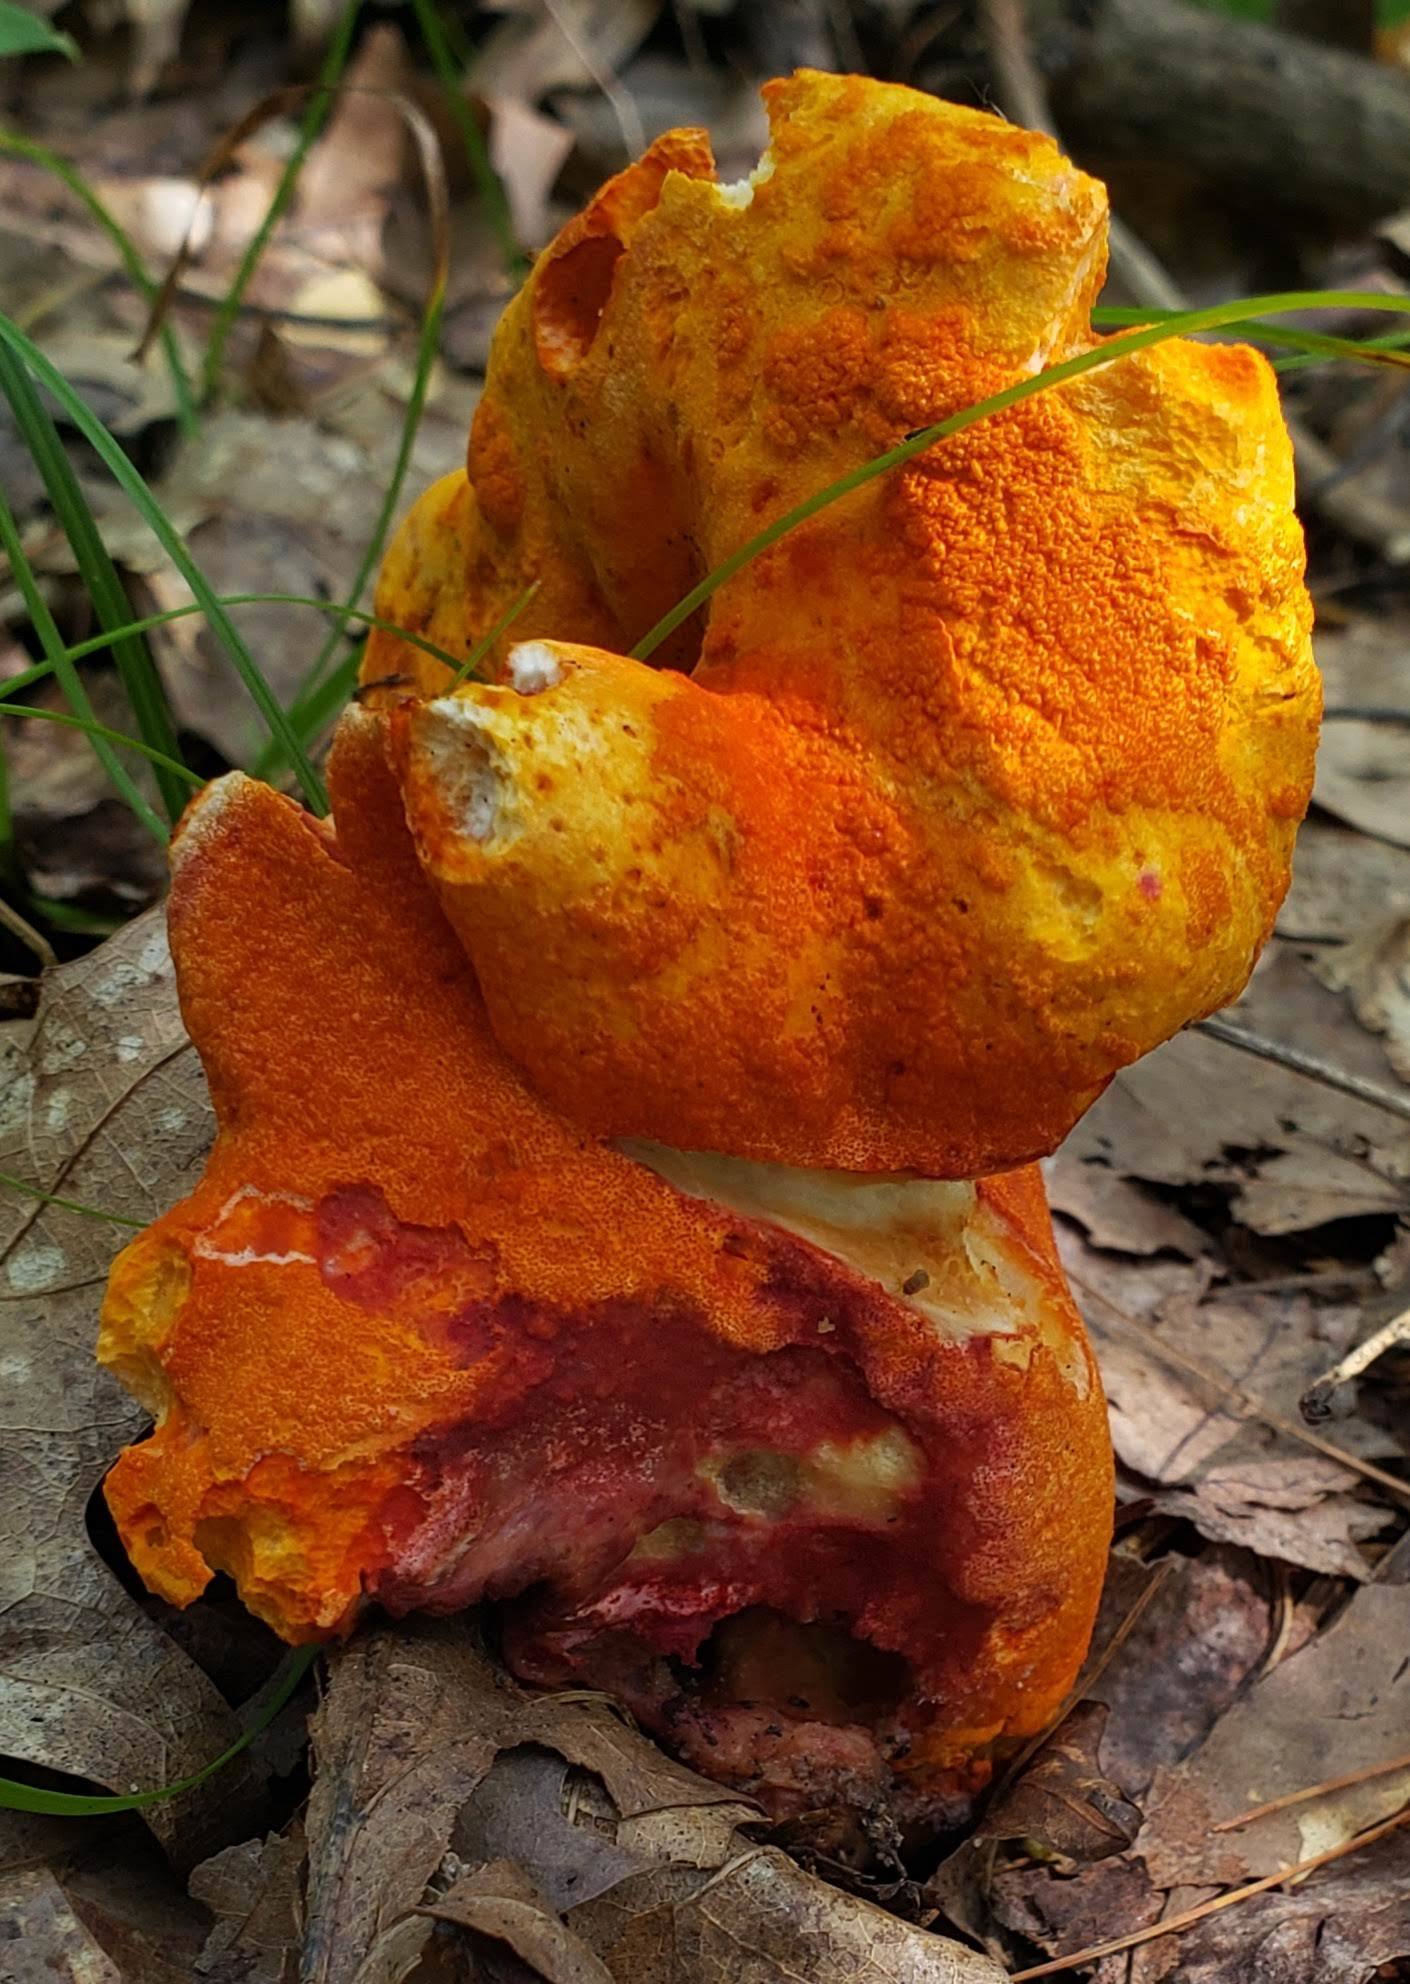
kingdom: Fungi
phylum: Ascomycota
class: Sordariomycetes
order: Hypocreales
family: Hypocreaceae
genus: Hypomyces
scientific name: Hypomyces lactifluorum
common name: Lobster mushroom
